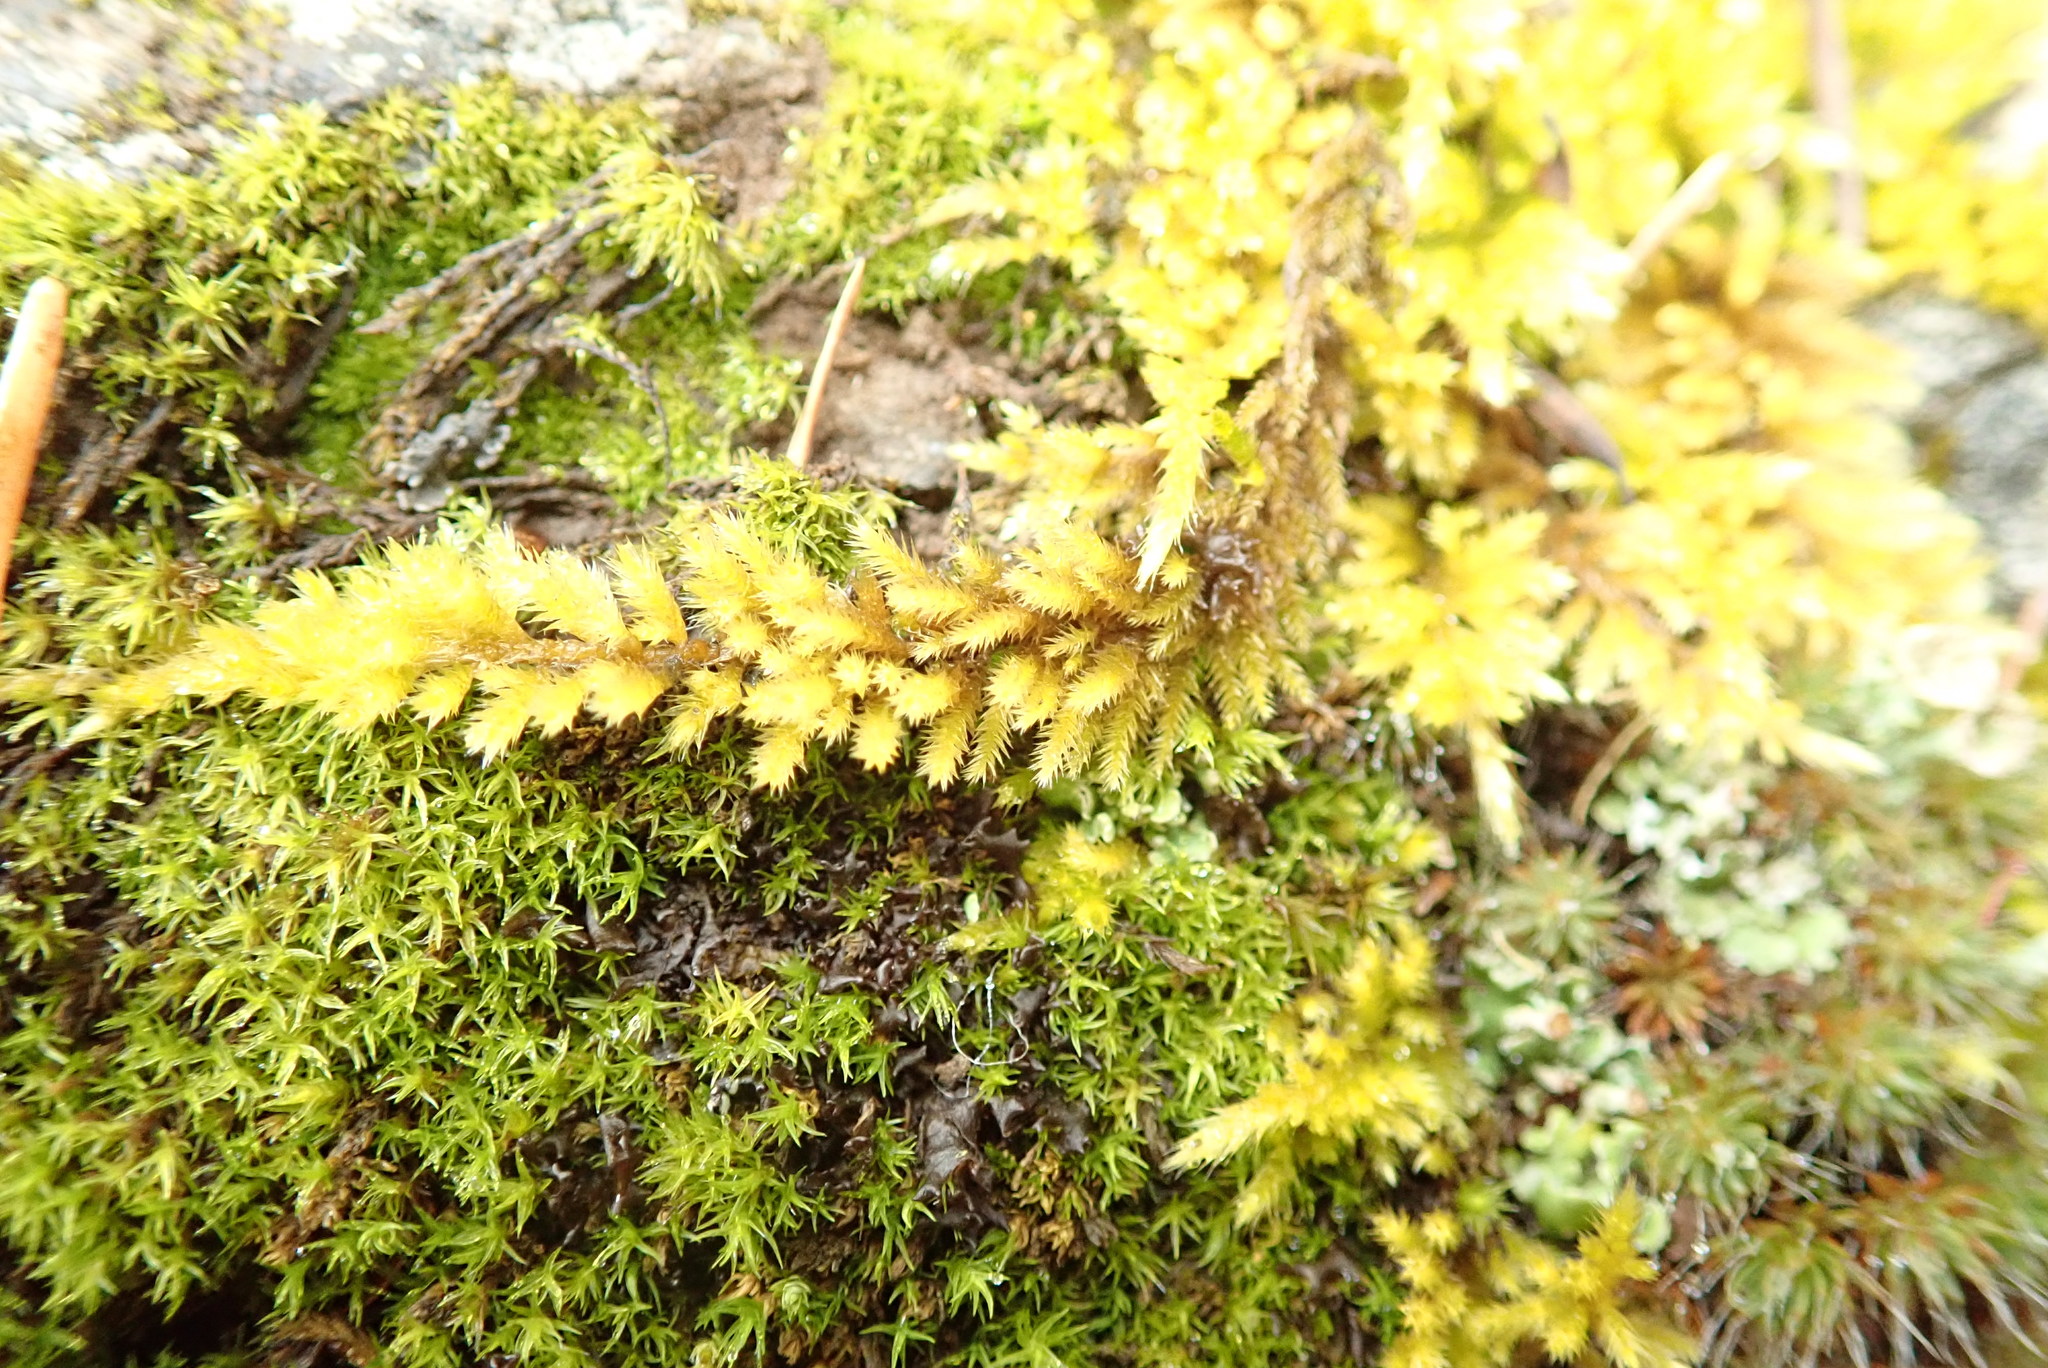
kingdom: Plantae
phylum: Bryophyta
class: Bryopsida
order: Hypnales
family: Brachytheciaceae
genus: Homalothecium
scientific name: Homalothecium nuttallii
